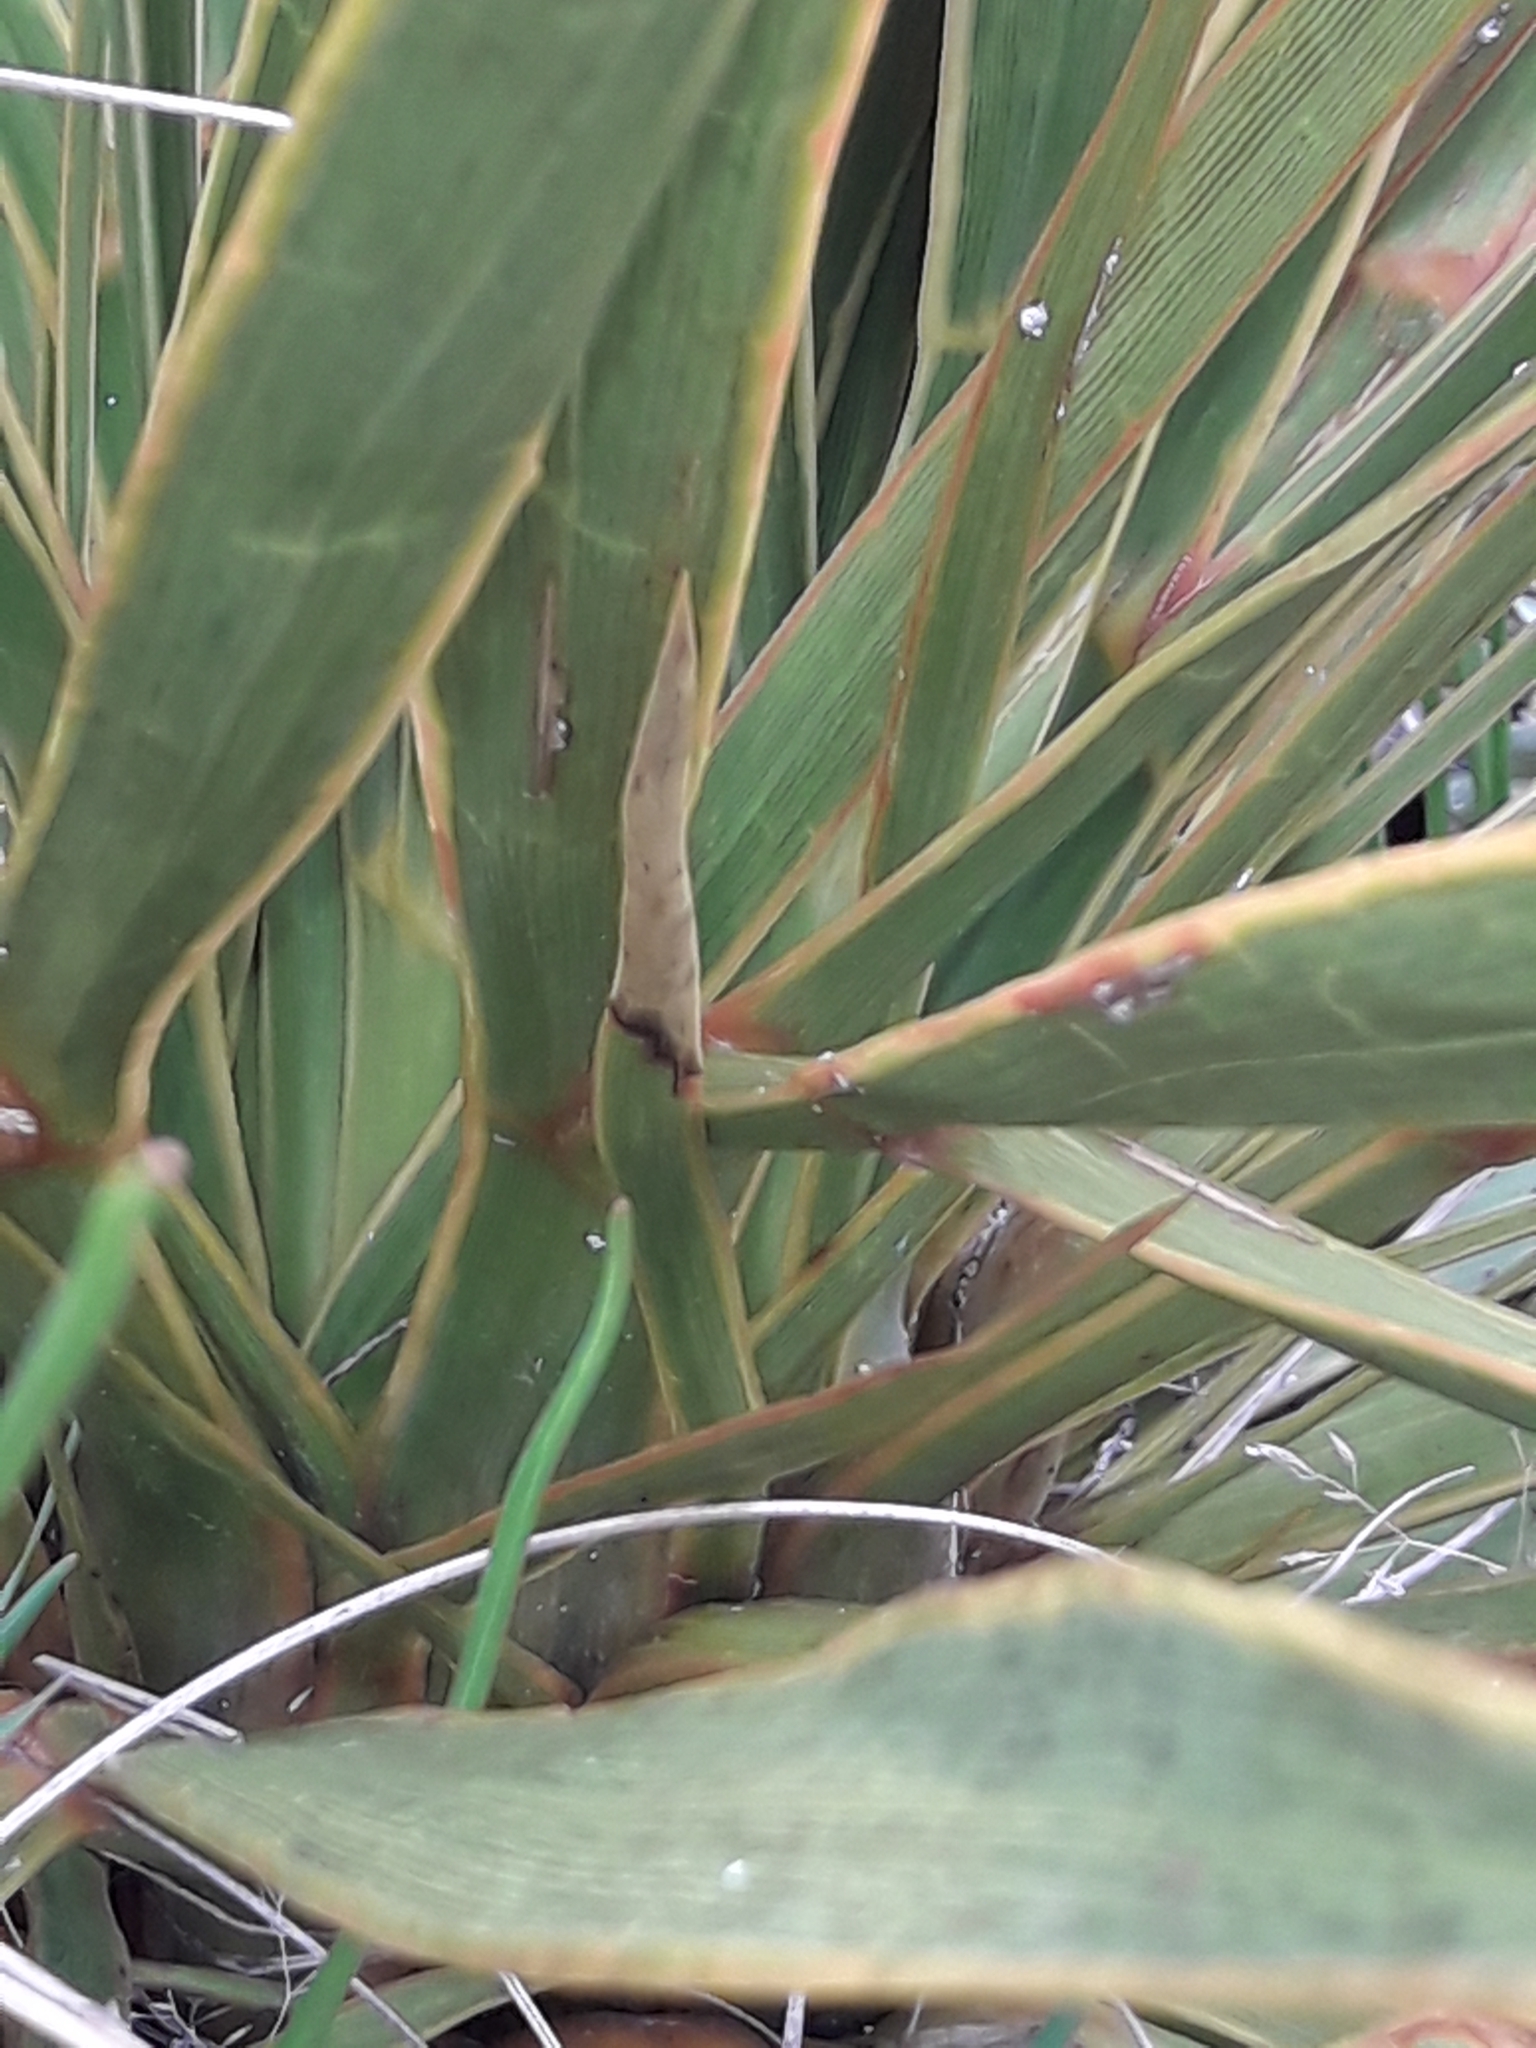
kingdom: Plantae
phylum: Tracheophyta
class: Magnoliopsida
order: Apiales
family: Apiaceae
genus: Aciphylla
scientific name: Aciphylla aurea
